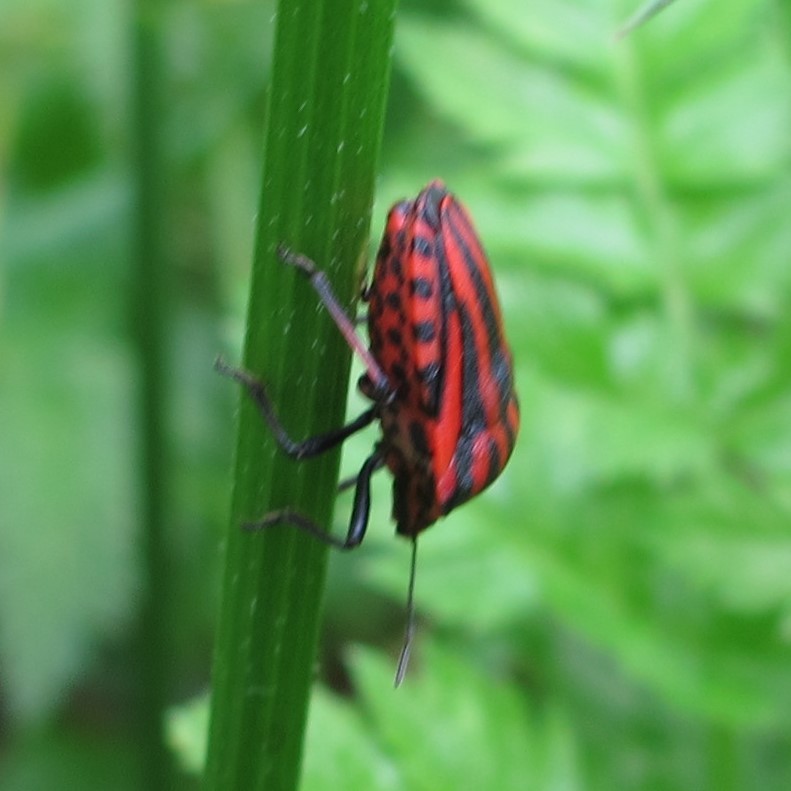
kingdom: Animalia
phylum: Arthropoda
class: Insecta
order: Hemiptera
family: Pentatomidae
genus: Graphosoma
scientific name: Graphosoma italicum
